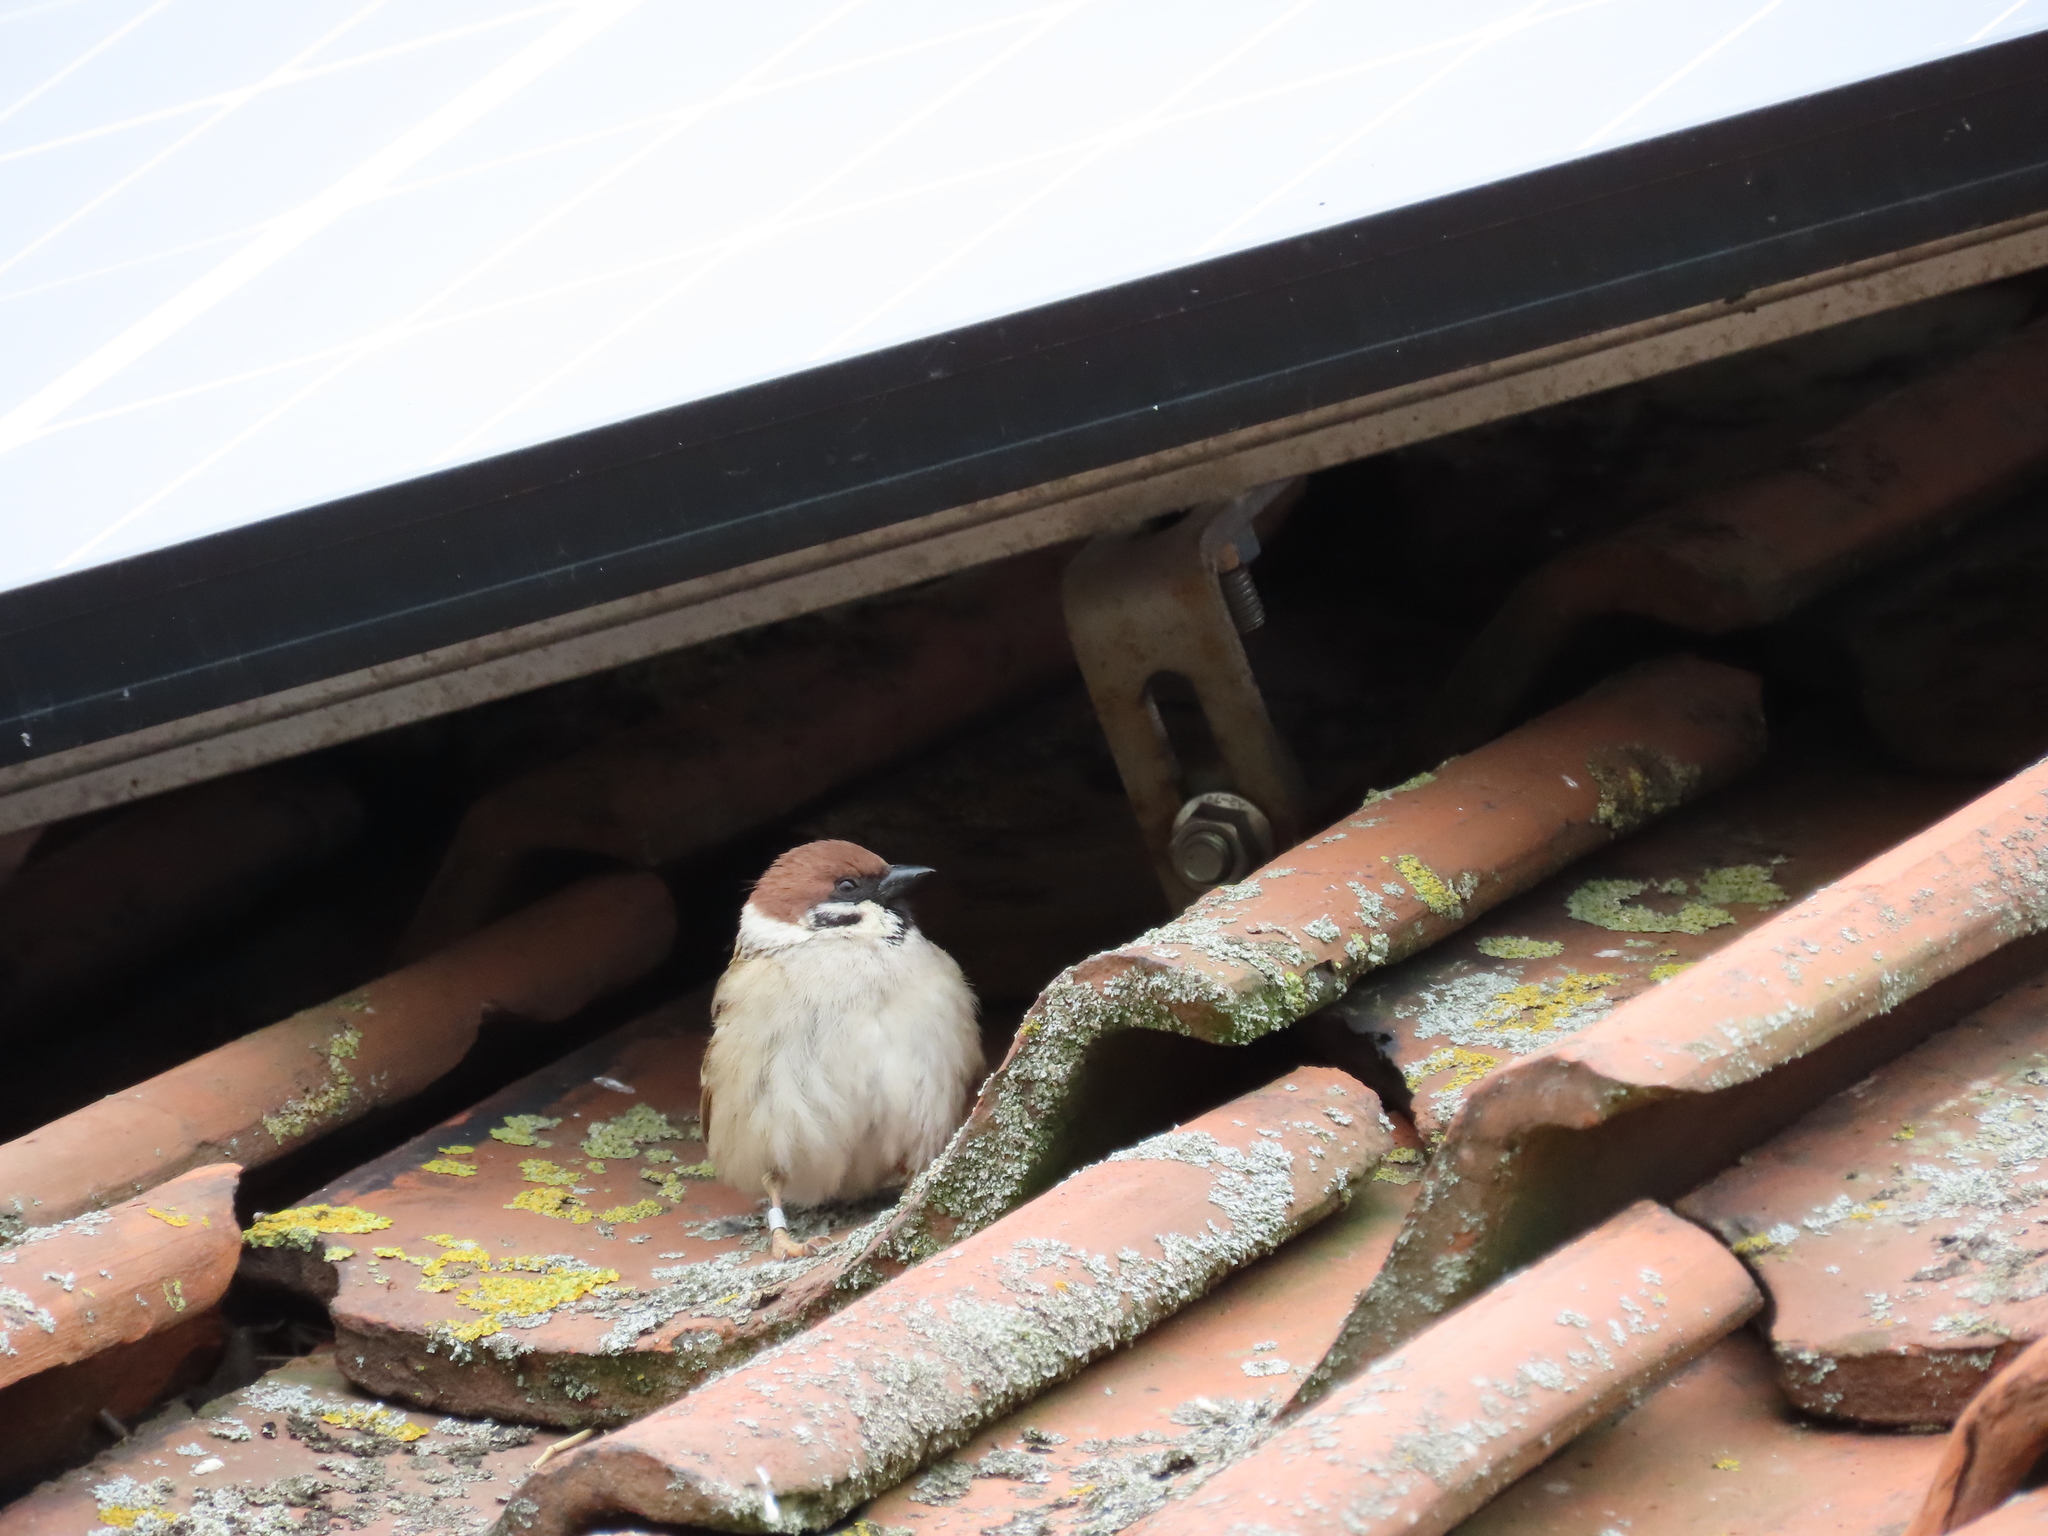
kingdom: Animalia
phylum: Chordata
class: Aves
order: Passeriformes
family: Passeridae
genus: Passer
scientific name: Passer montanus
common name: Eurasian tree sparrow
